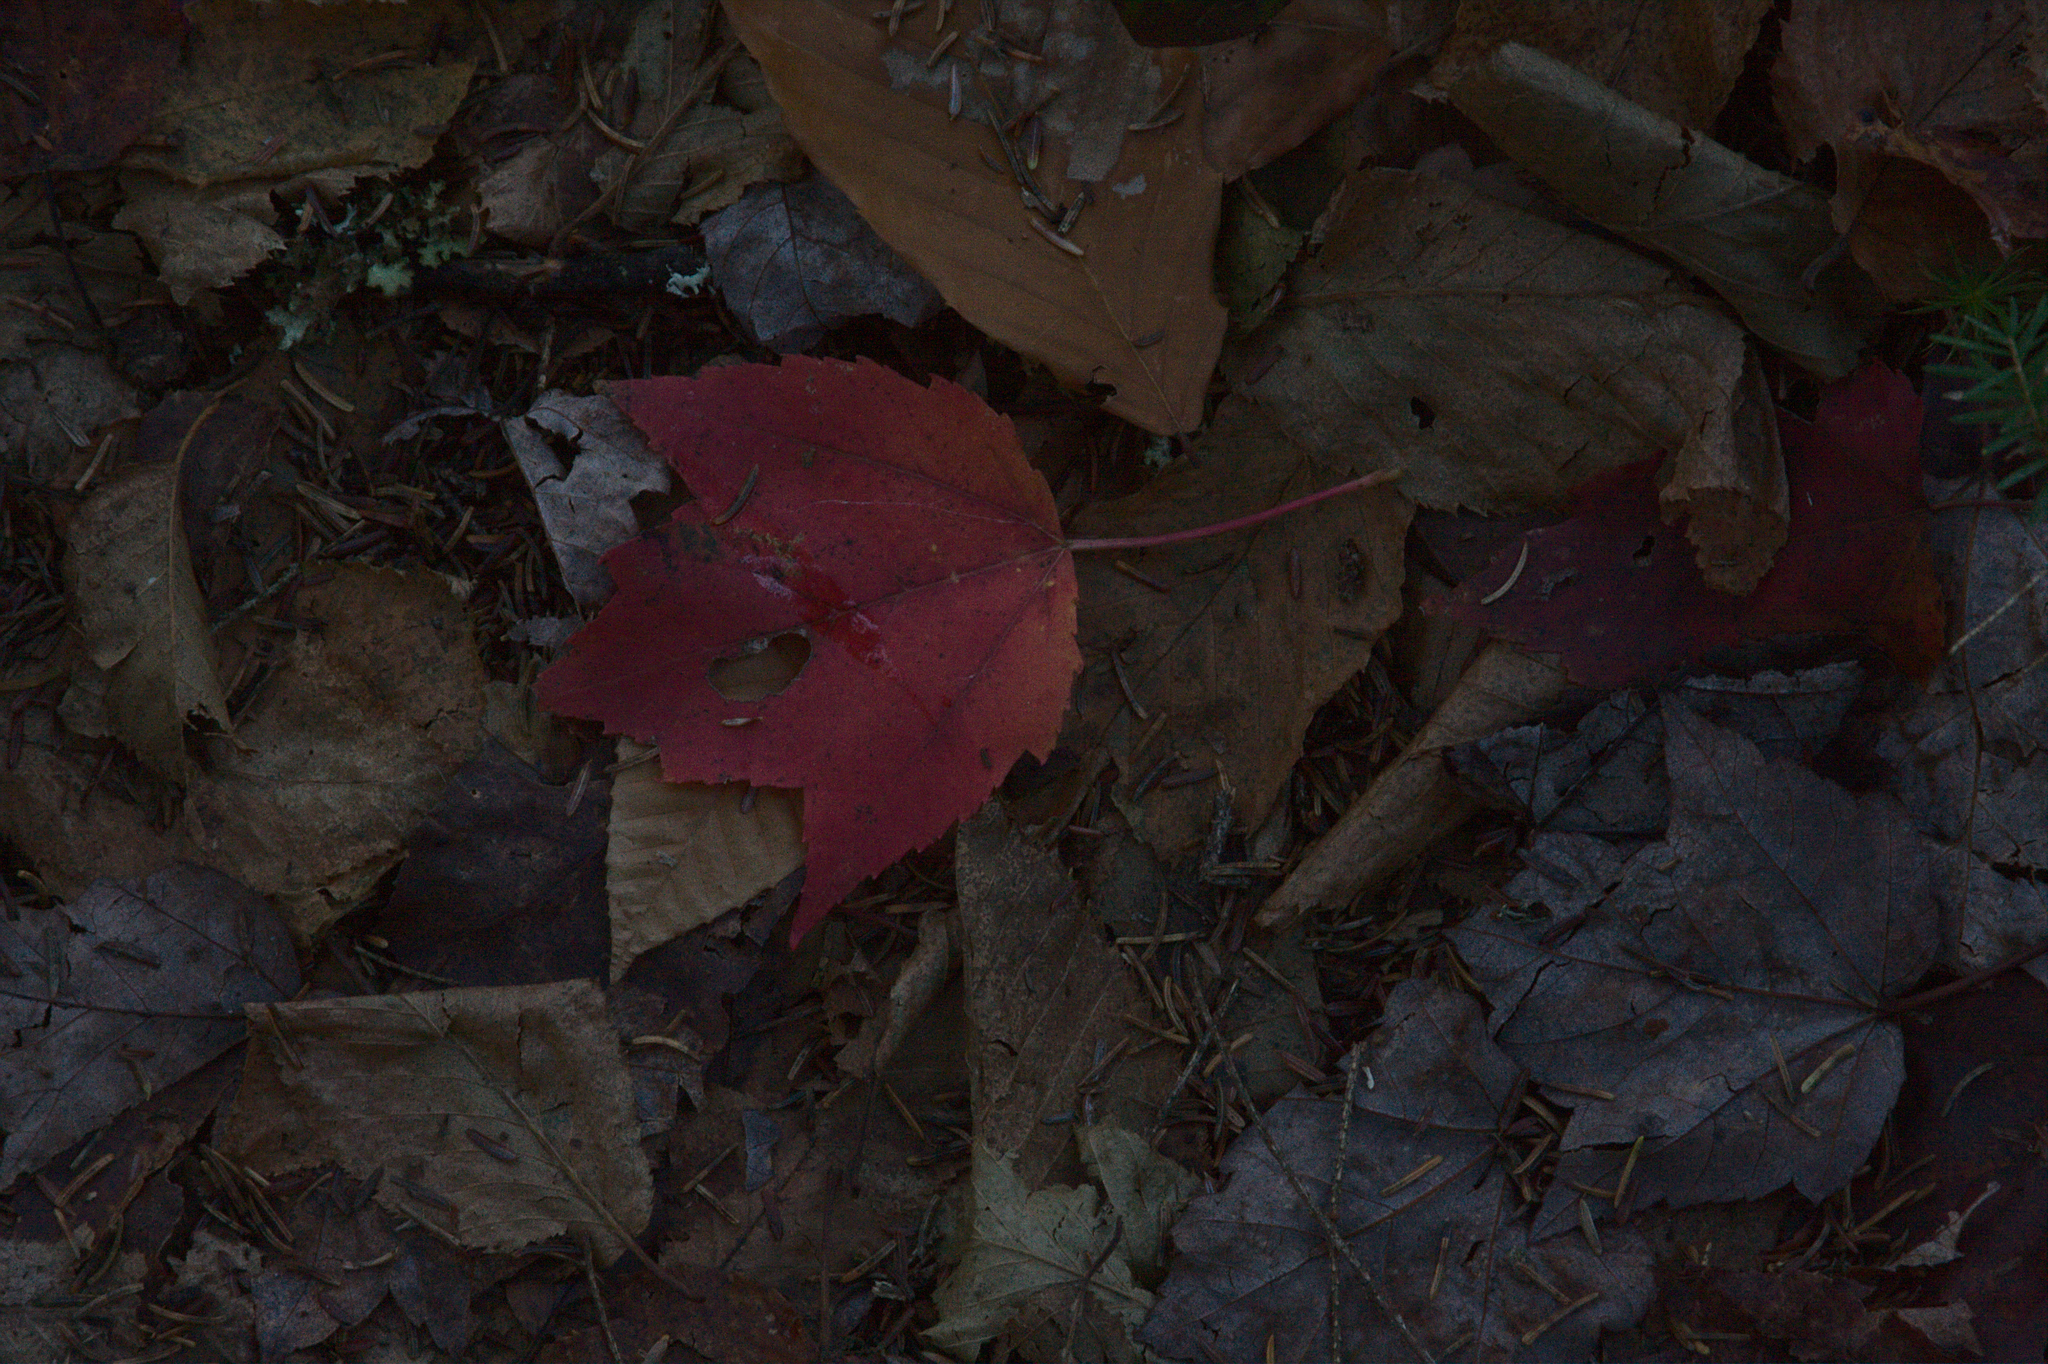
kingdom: Plantae
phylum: Tracheophyta
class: Magnoliopsida
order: Sapindales
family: Sapindaceae
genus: Acer
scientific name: Acer rubrum
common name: Red maple
